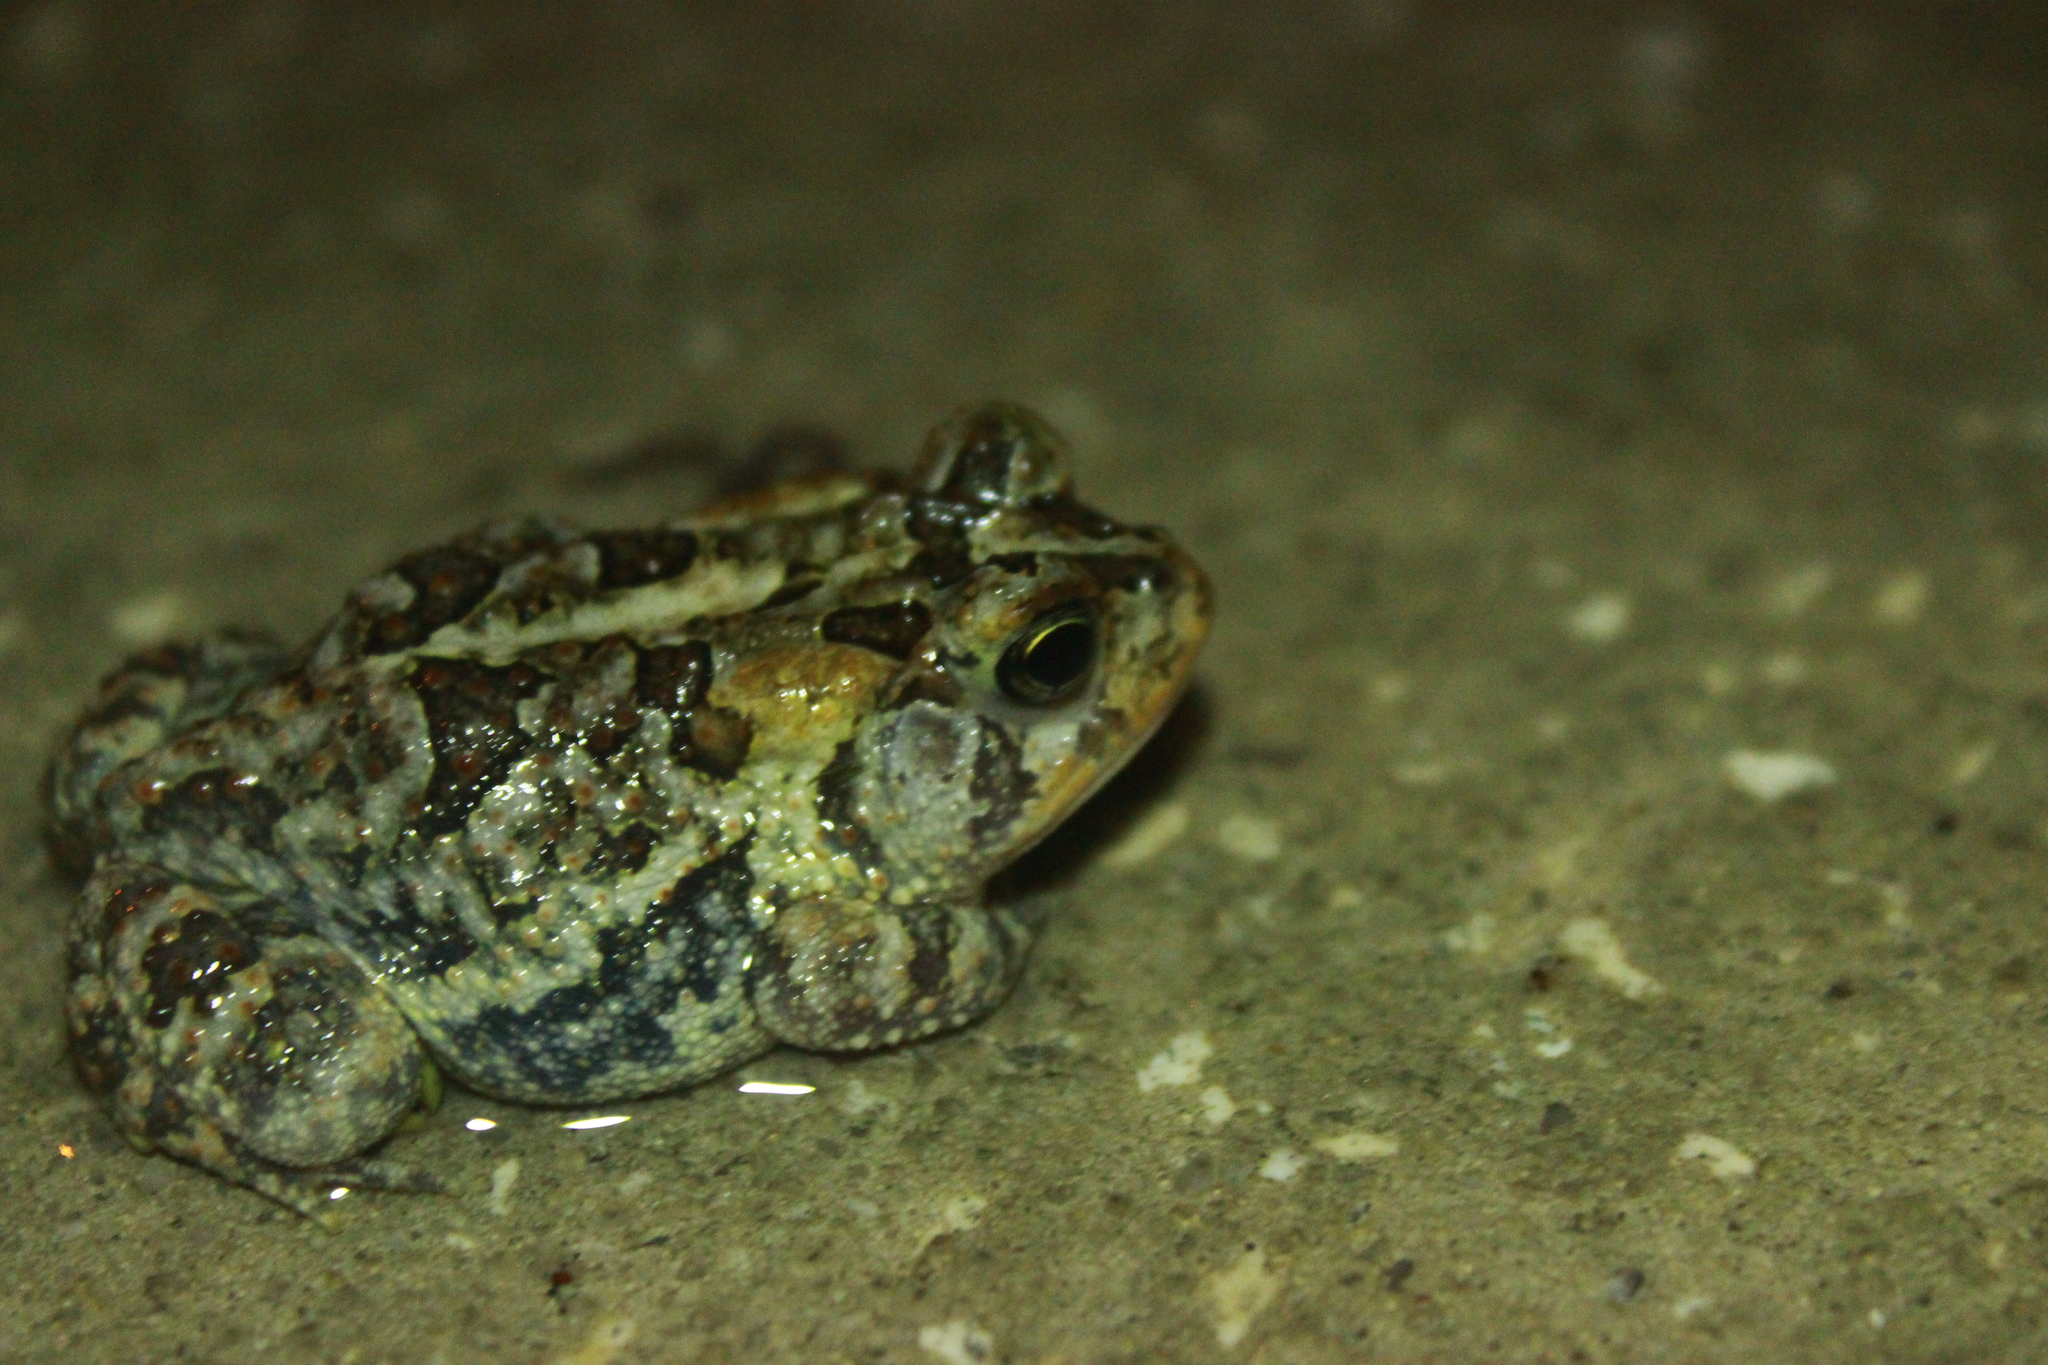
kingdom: Animalia
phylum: Chordata
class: Amphibia
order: Anura
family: Bufonidae
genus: Anaxyrus
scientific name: Anaxyrus terrestris
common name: Southern toad
